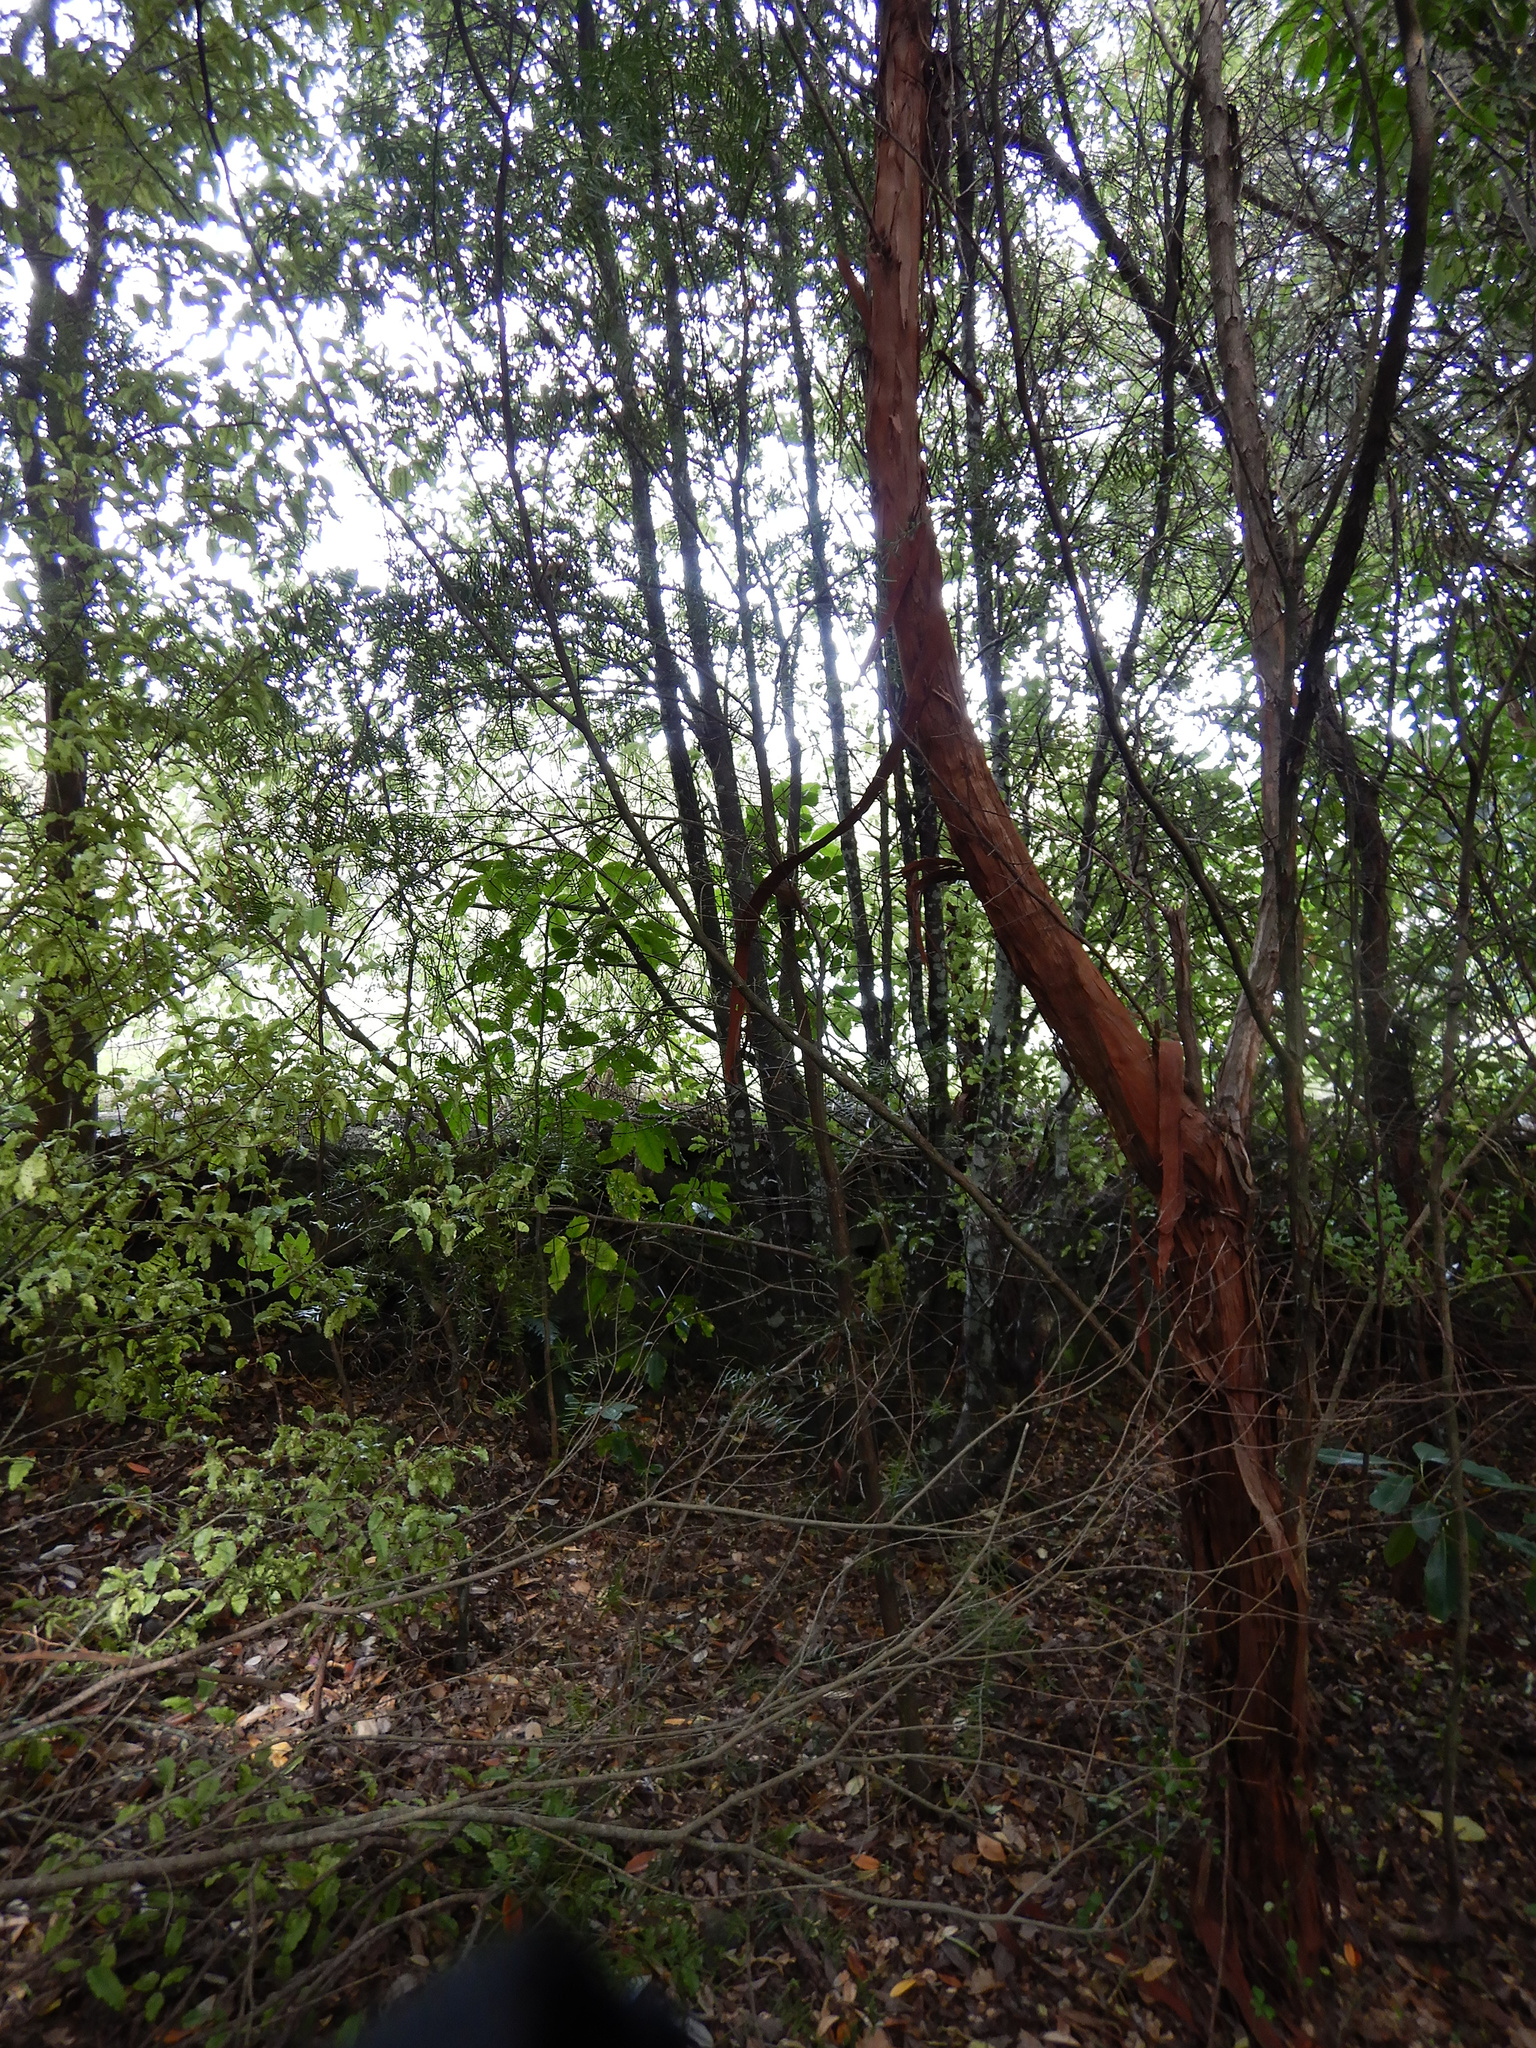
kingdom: Plantae
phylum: Tracheophyta
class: Pinopsida
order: Pinales
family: Podocarpaceae
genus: Podocarpus
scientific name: Podocarpus totara
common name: Totara
